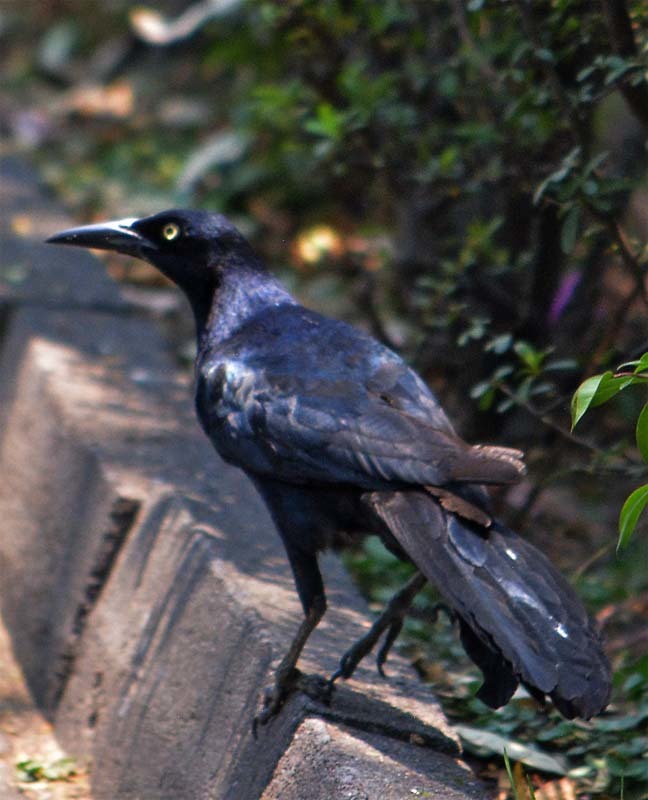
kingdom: Animalia
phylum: Chordata
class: Aves
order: Passeriformes
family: Icteridae
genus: Quiscalus
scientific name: Quiscalus mexicanus
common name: Great-tailed grackle
